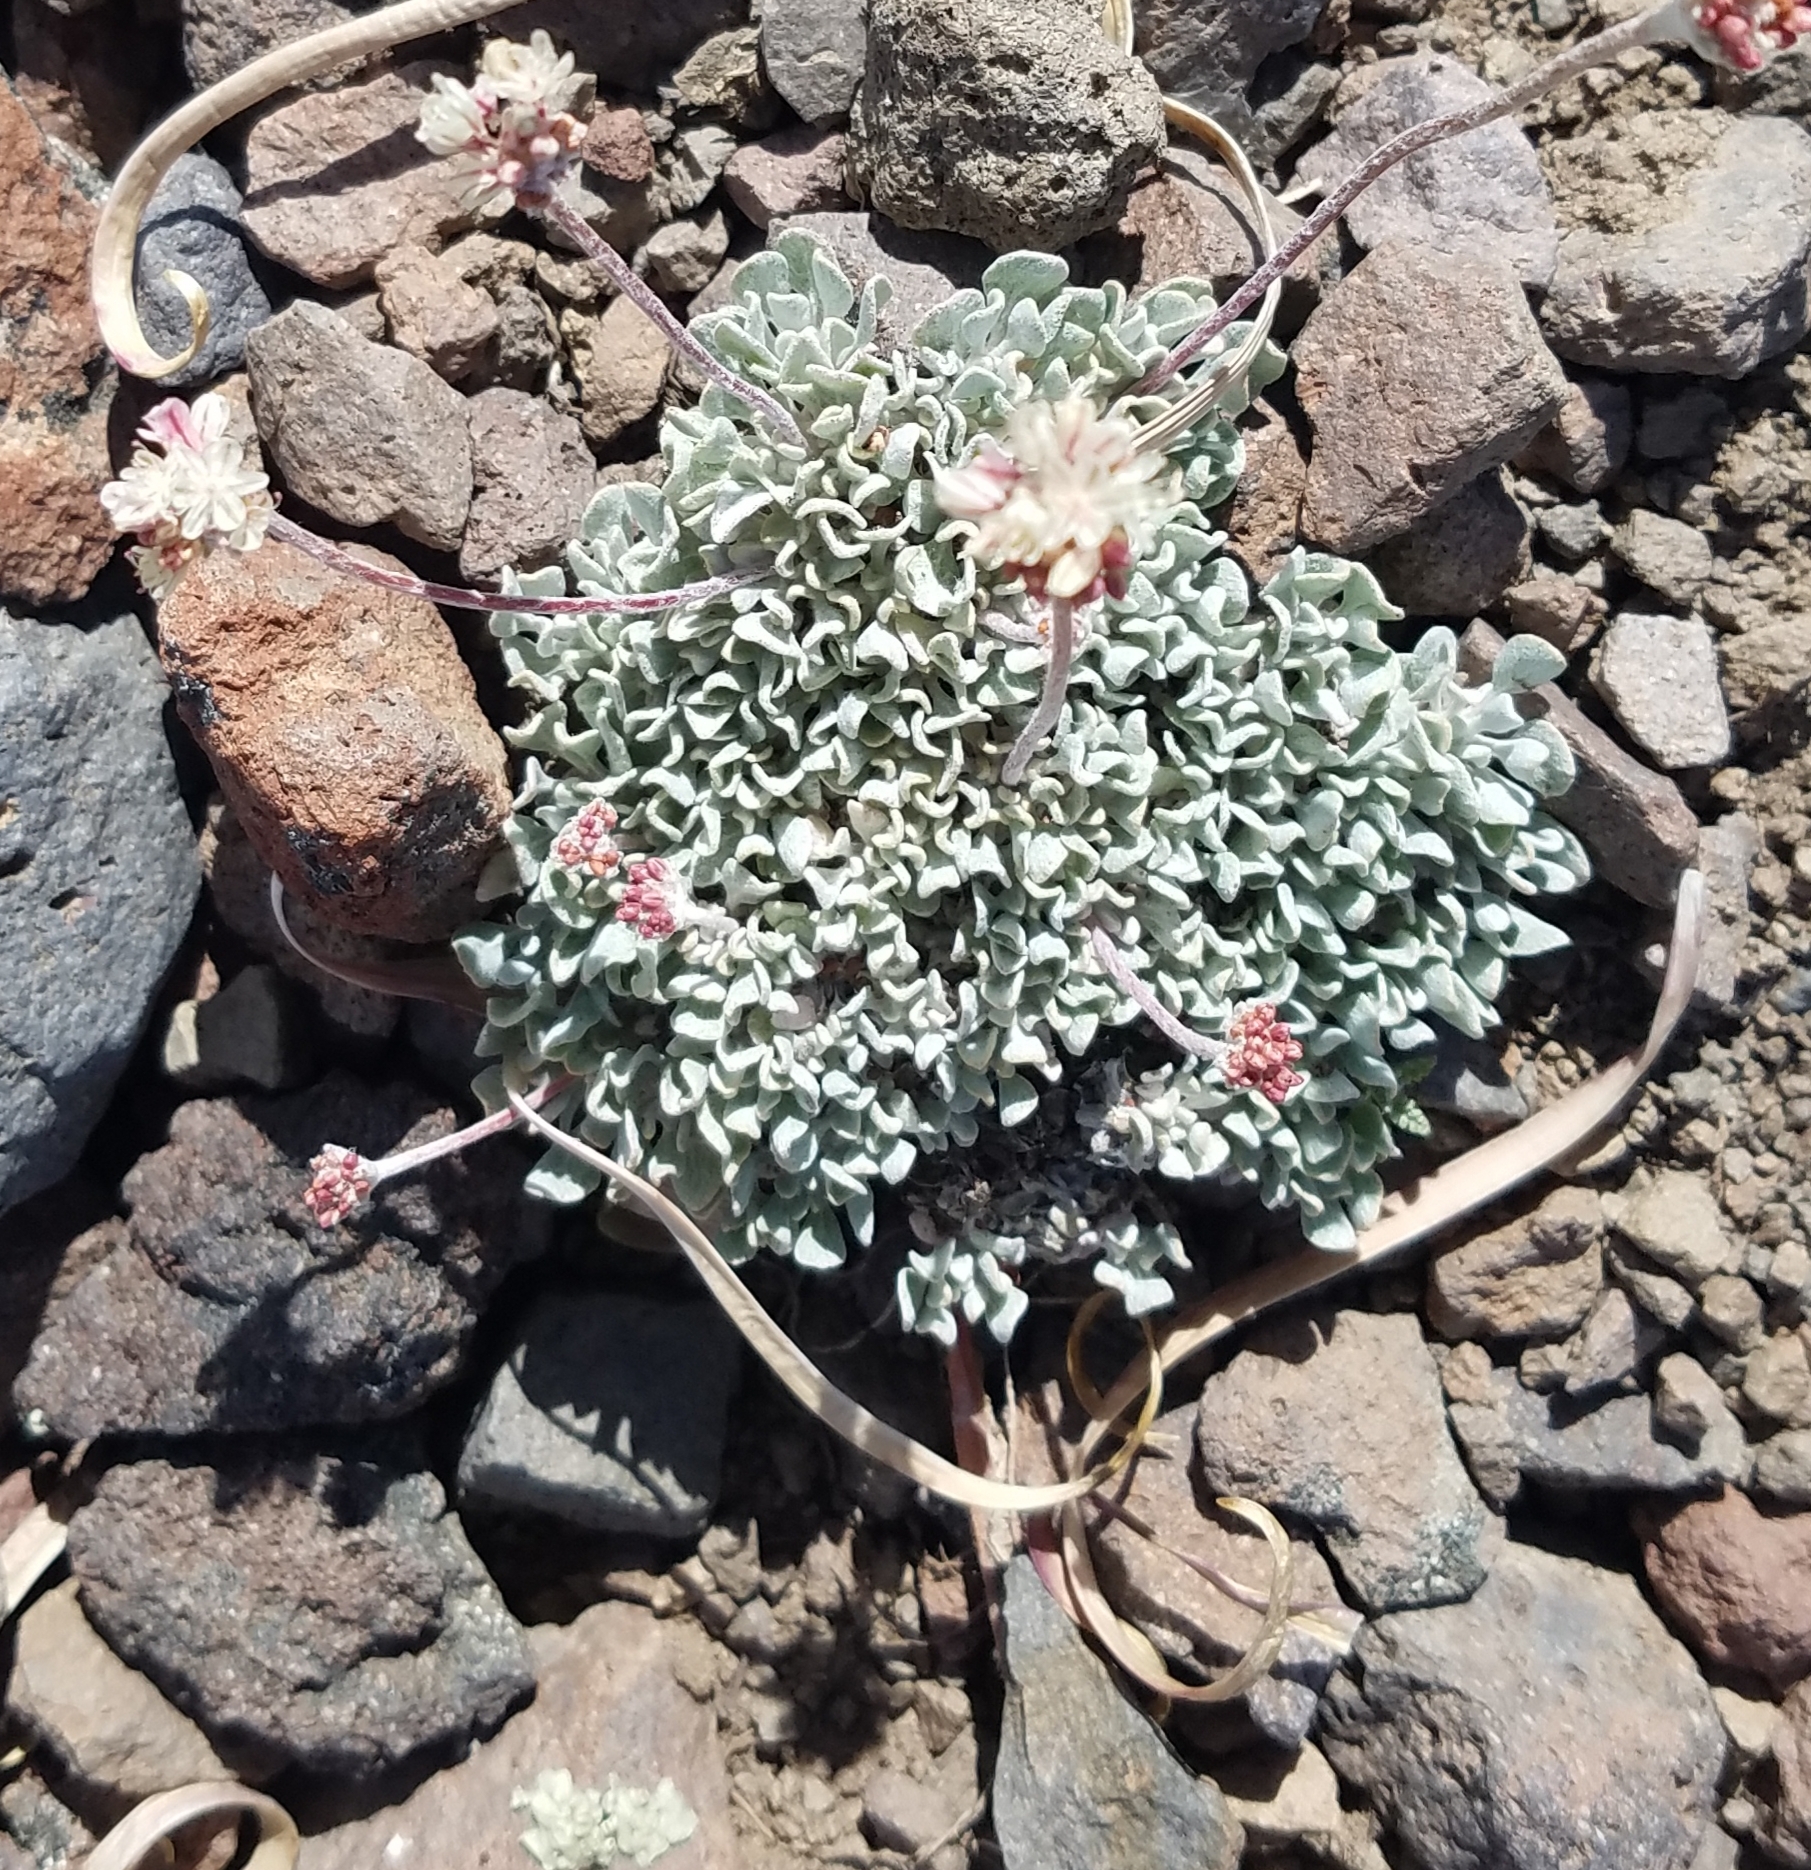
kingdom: Plantae
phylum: Tracheophyta
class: Magnoliopsida
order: Caryophyllales
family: Polygonaceae
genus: Eriogonum
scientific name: Eriogonum ovalifolium
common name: Cushion buckwheat
